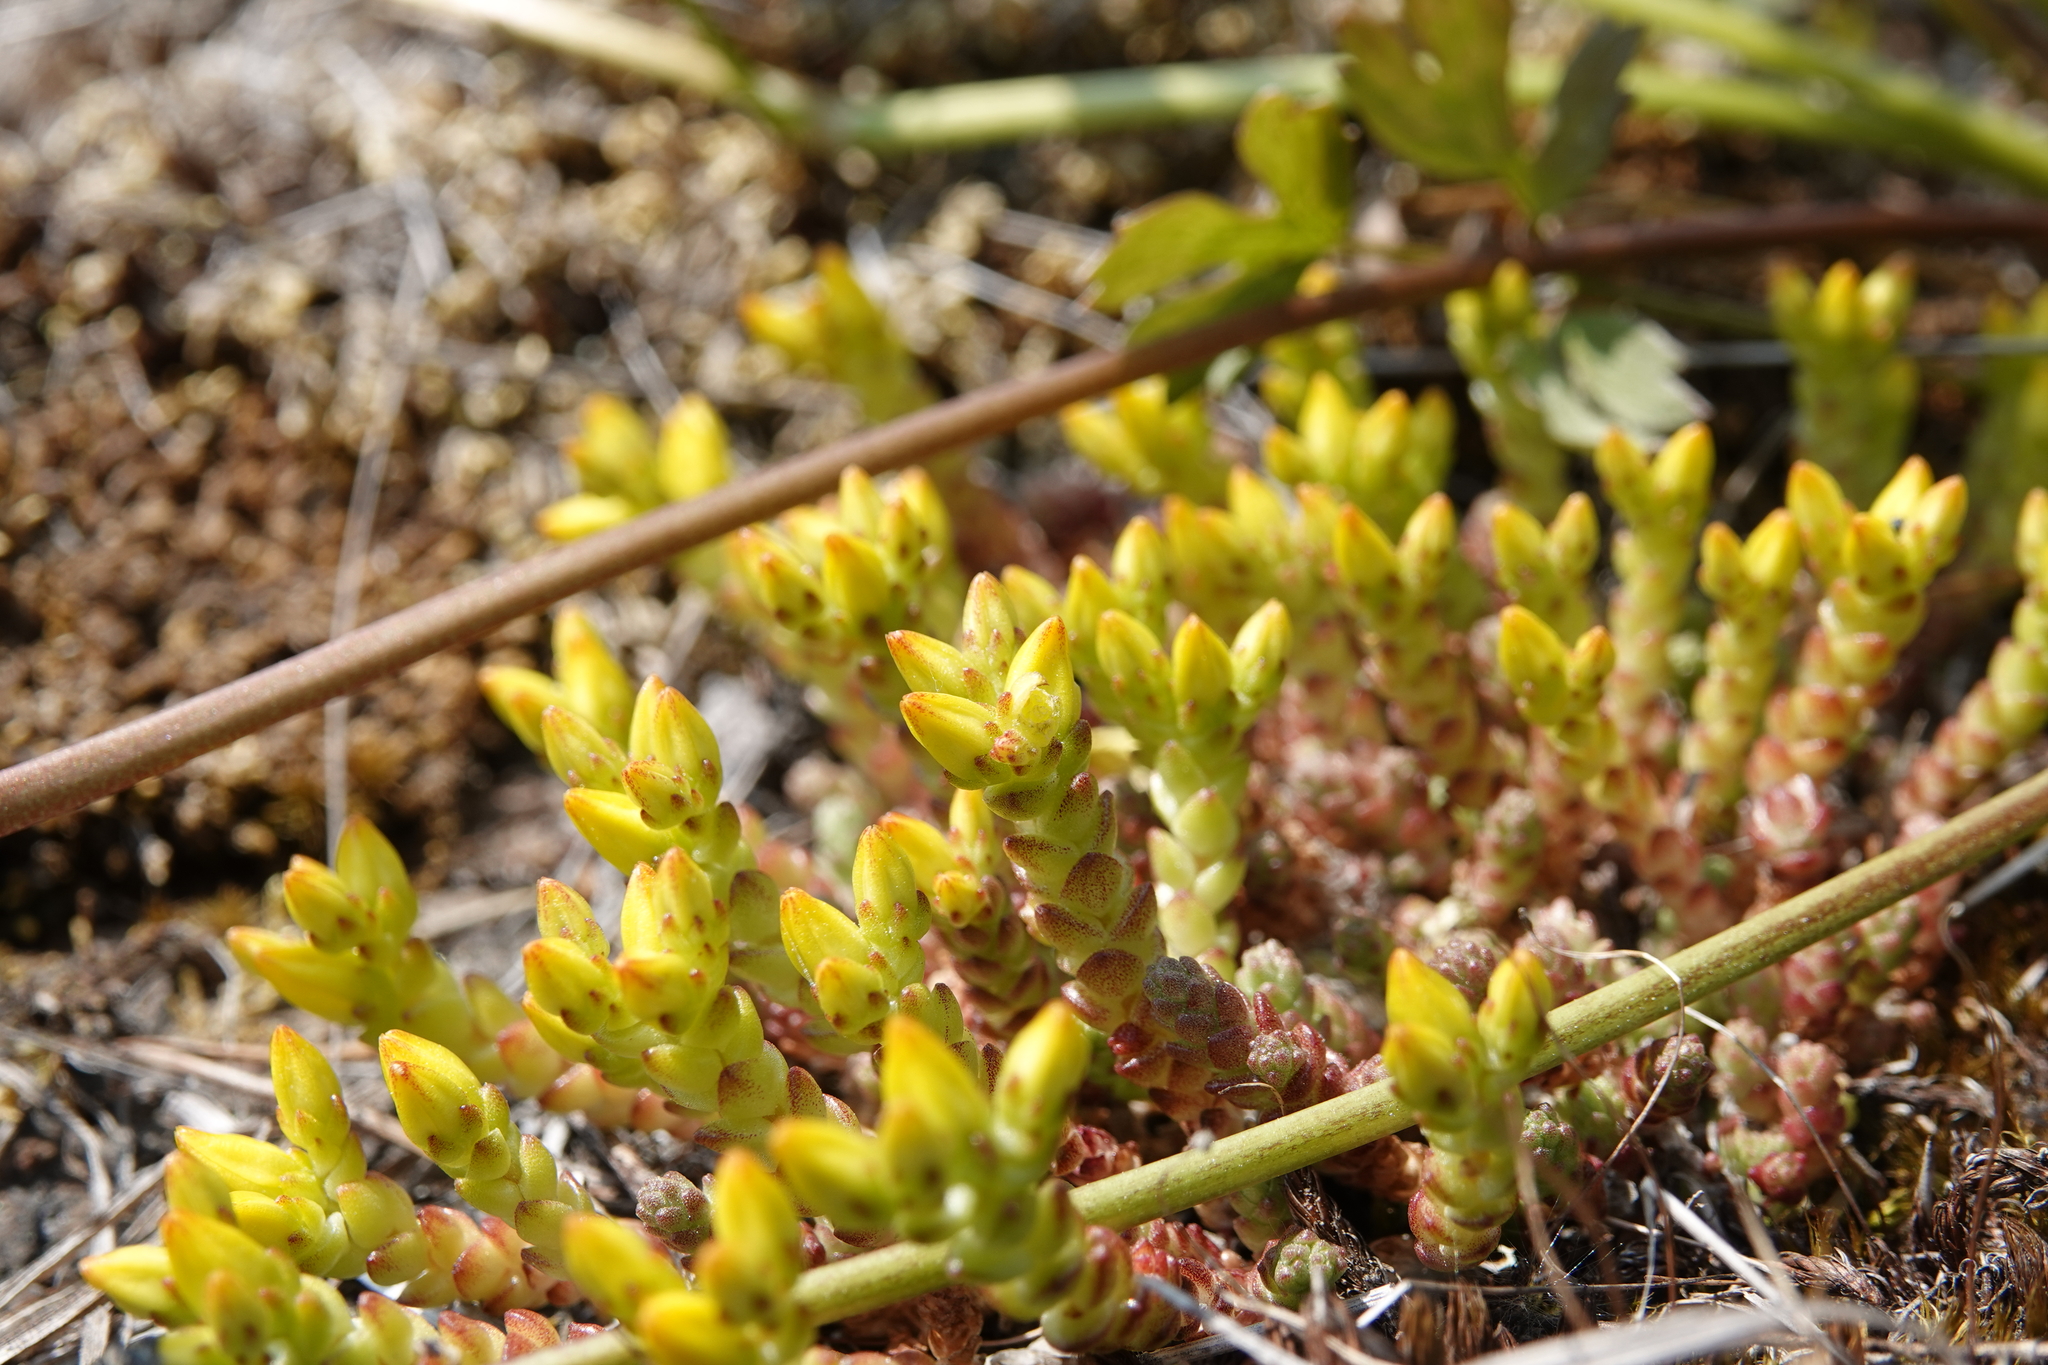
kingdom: Plantae
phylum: Tracheophyta
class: Magnoliopsida
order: Saxifragales
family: Crassulaceae
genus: Sedum
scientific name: Sedum acre
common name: Biting stonecrop
